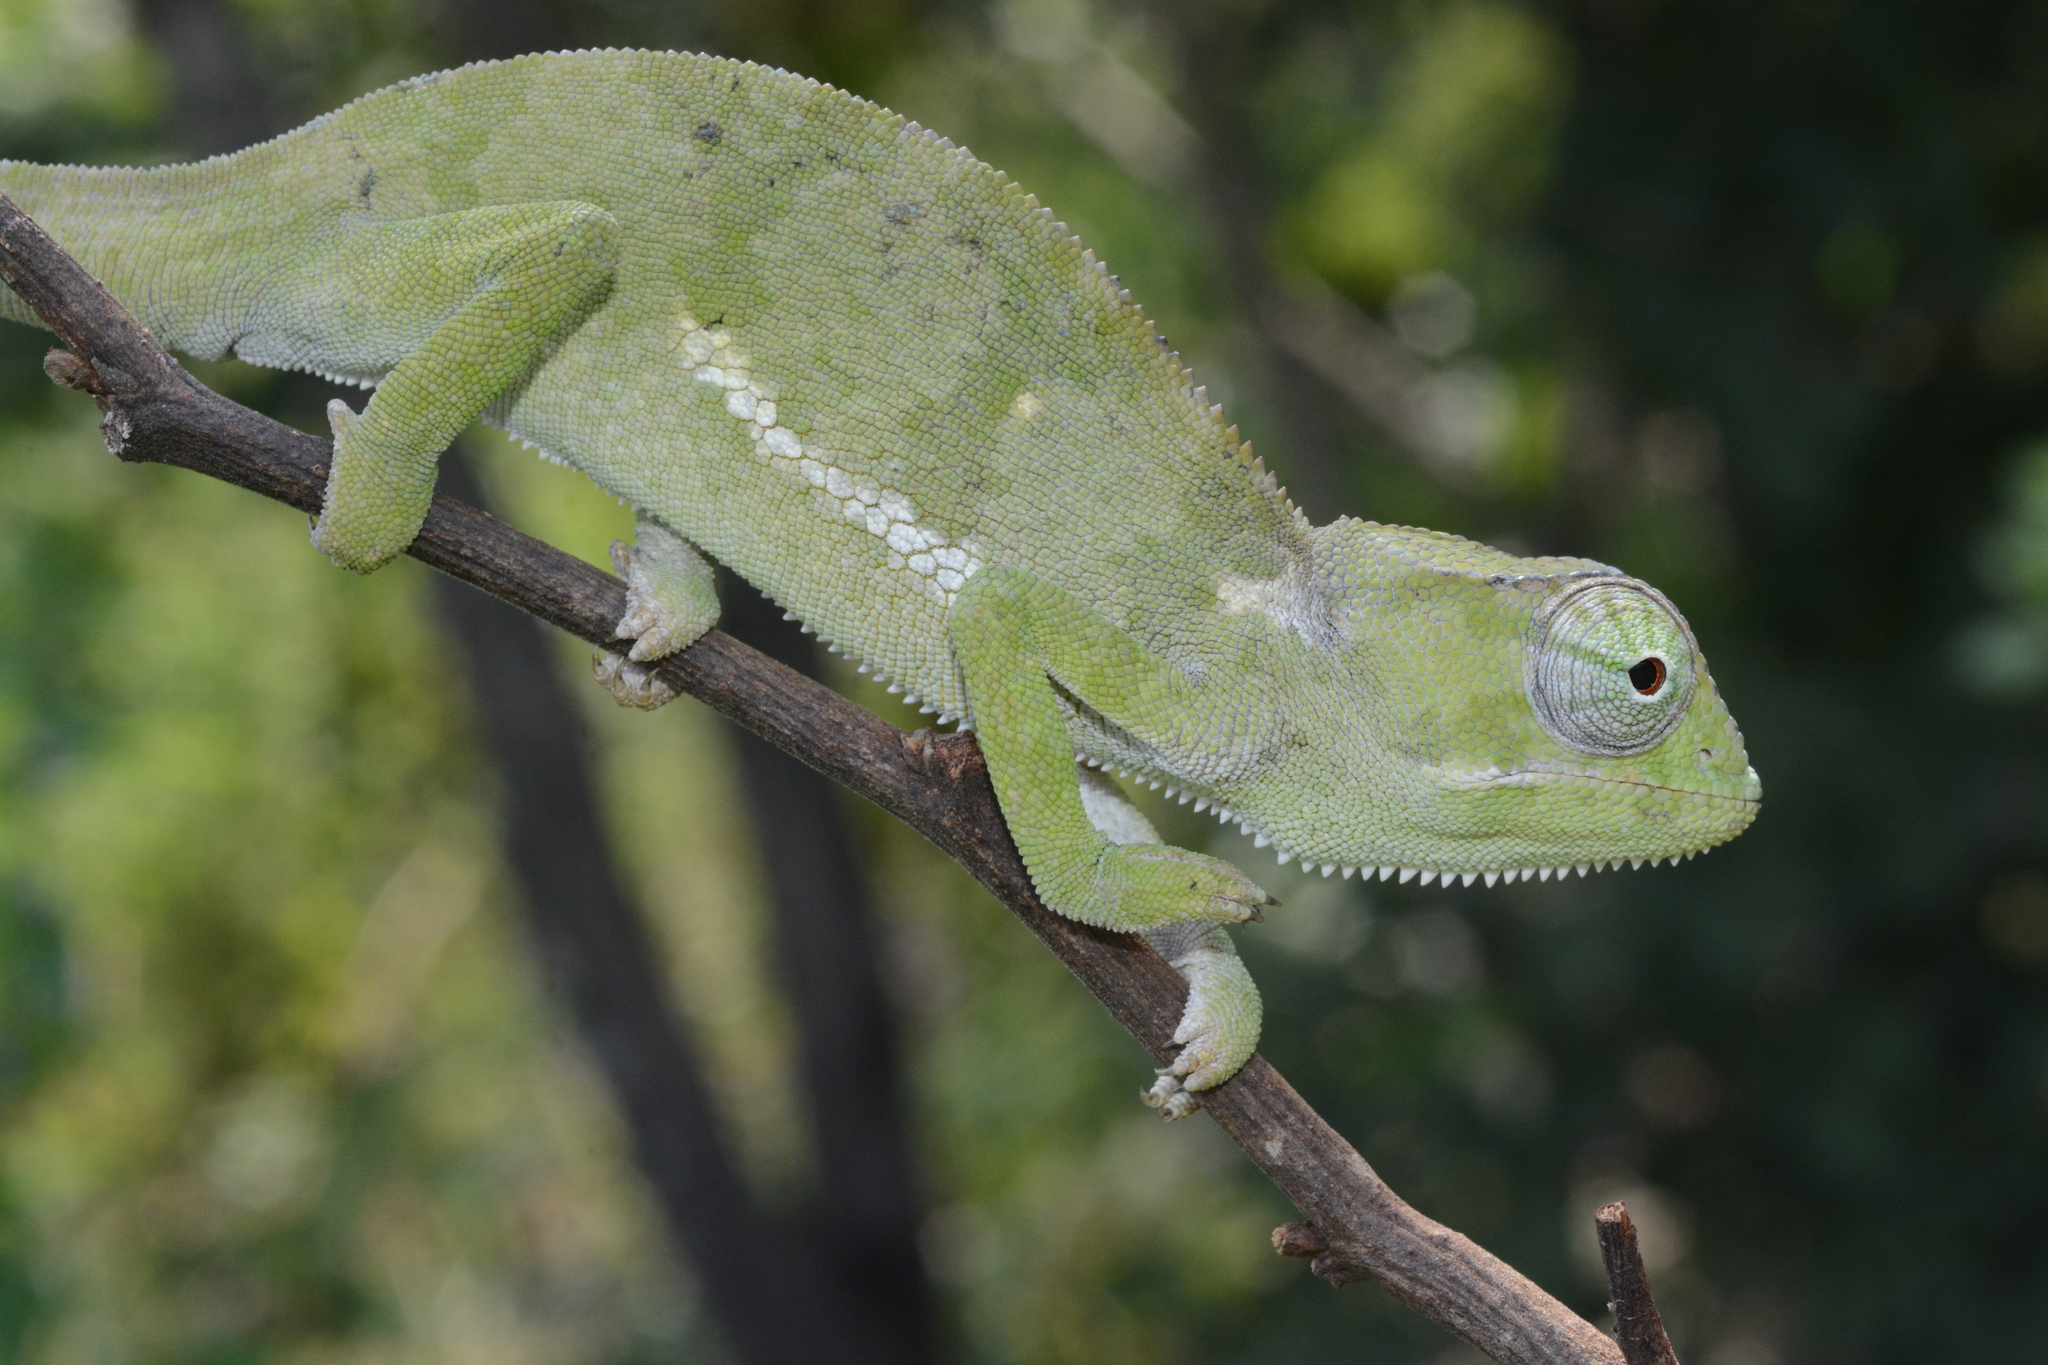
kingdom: Animalia
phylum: Chordata
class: Squamata
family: Chamaeleonidae
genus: Chamaeleo
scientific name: Chamaeleo dilepis
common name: Flapneck chameleon
